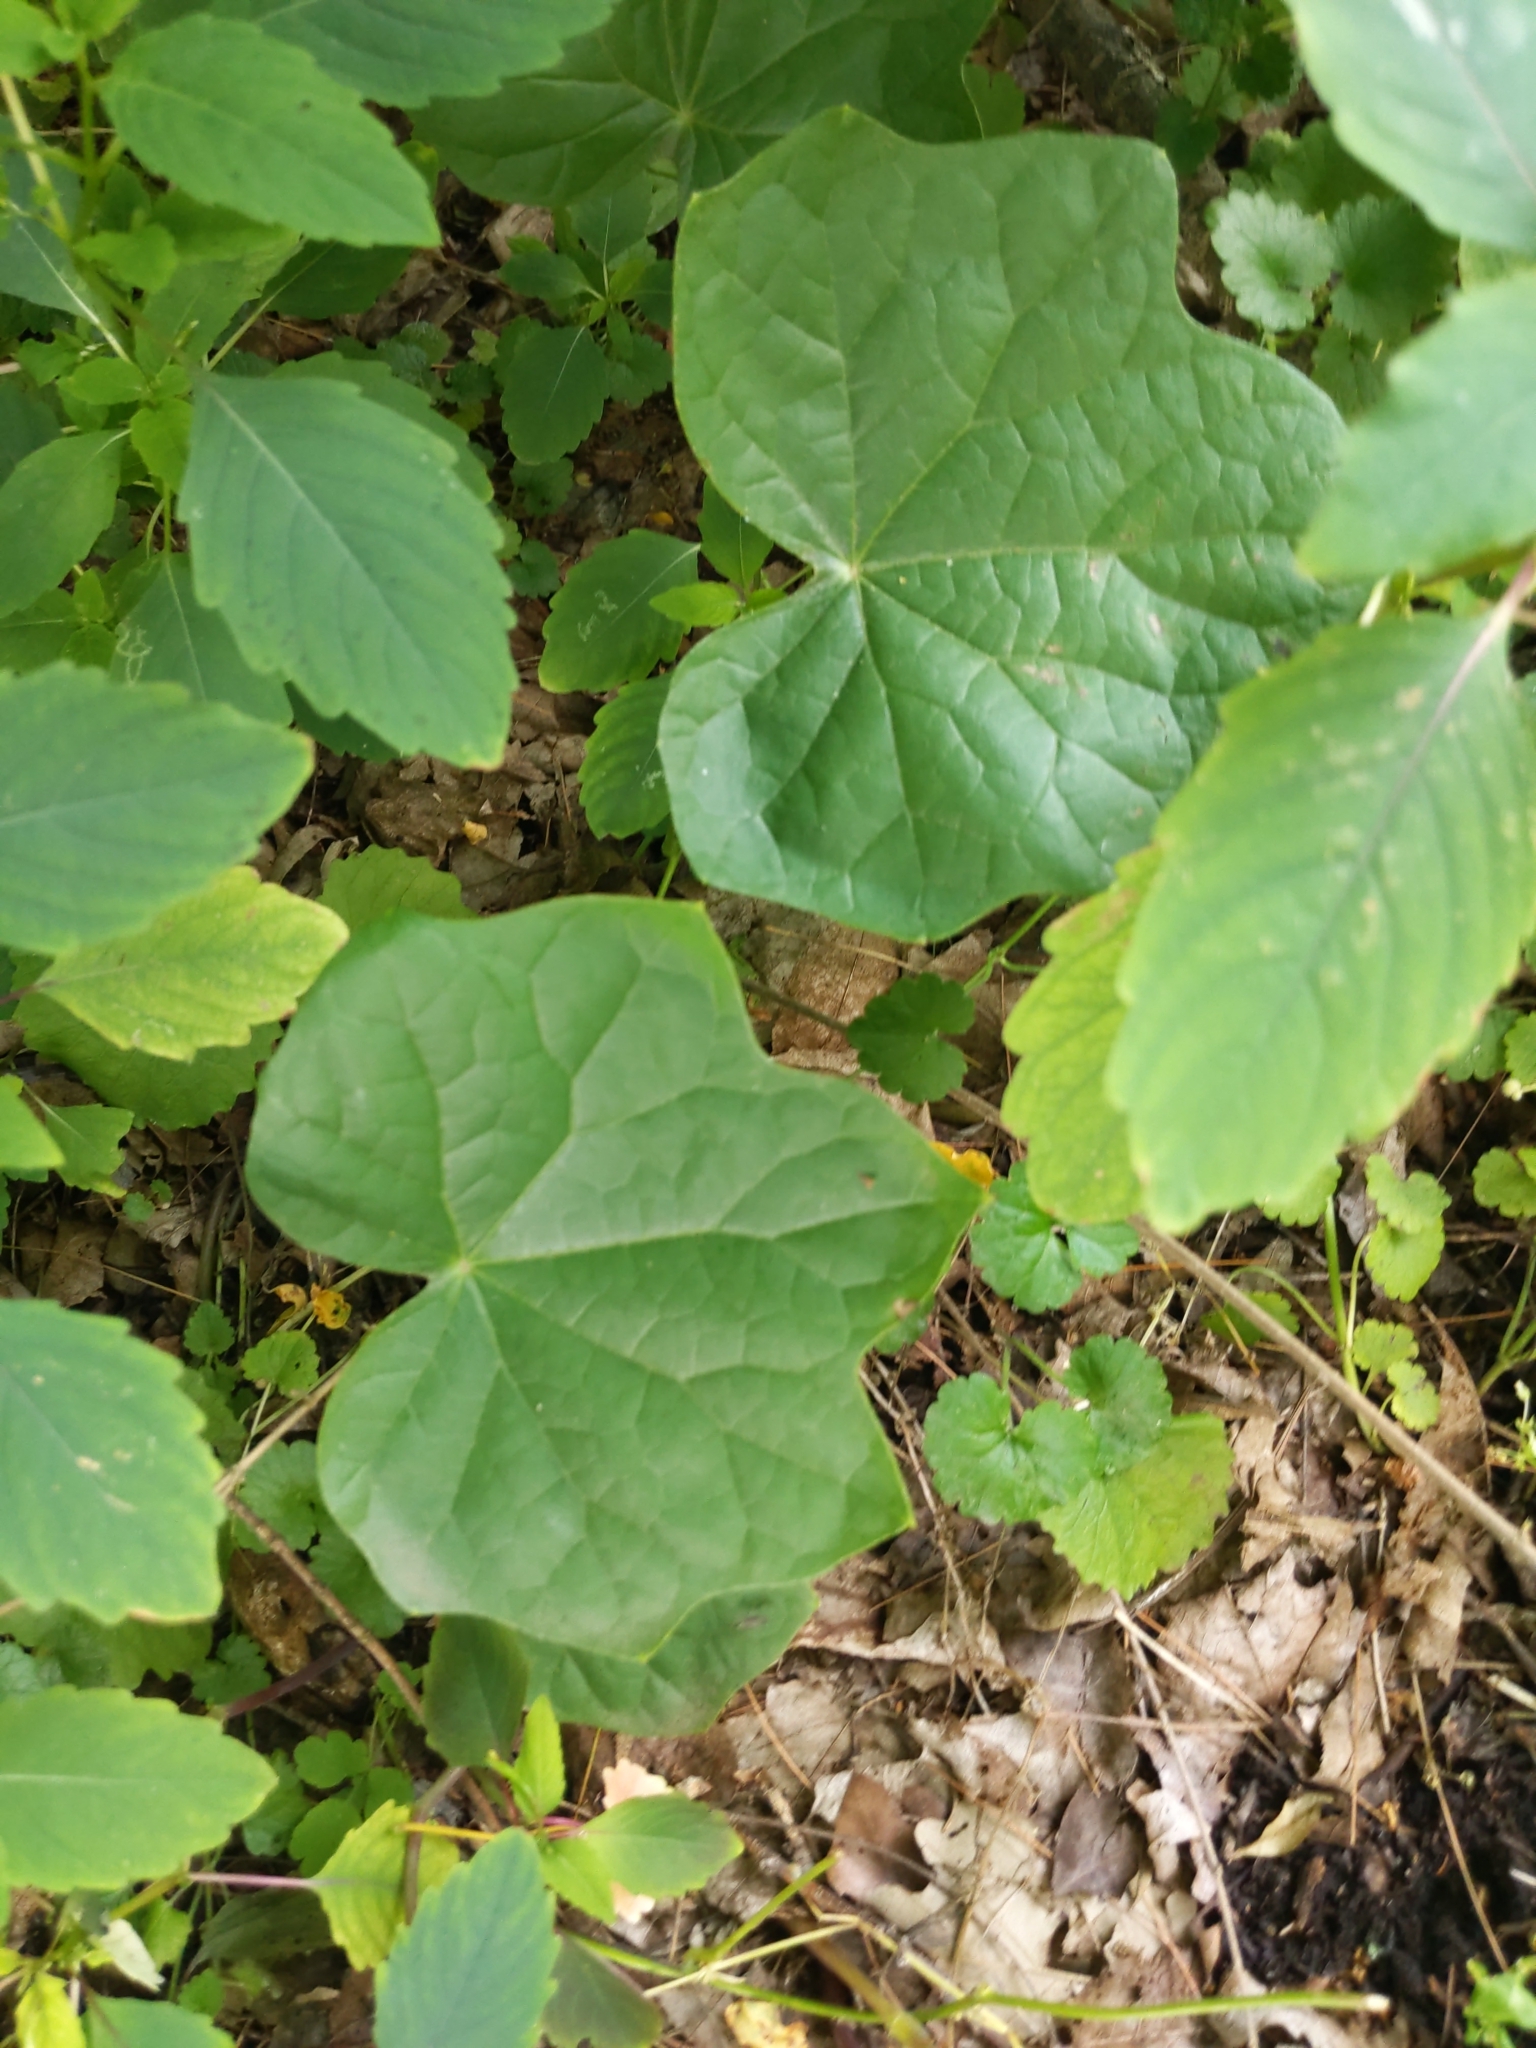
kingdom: Plantae
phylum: Tracheophyta
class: Magnoliopsida
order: Ranunculales
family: Menispermaceae
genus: Menispermum
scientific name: Menispermum canadense
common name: Moonseed
